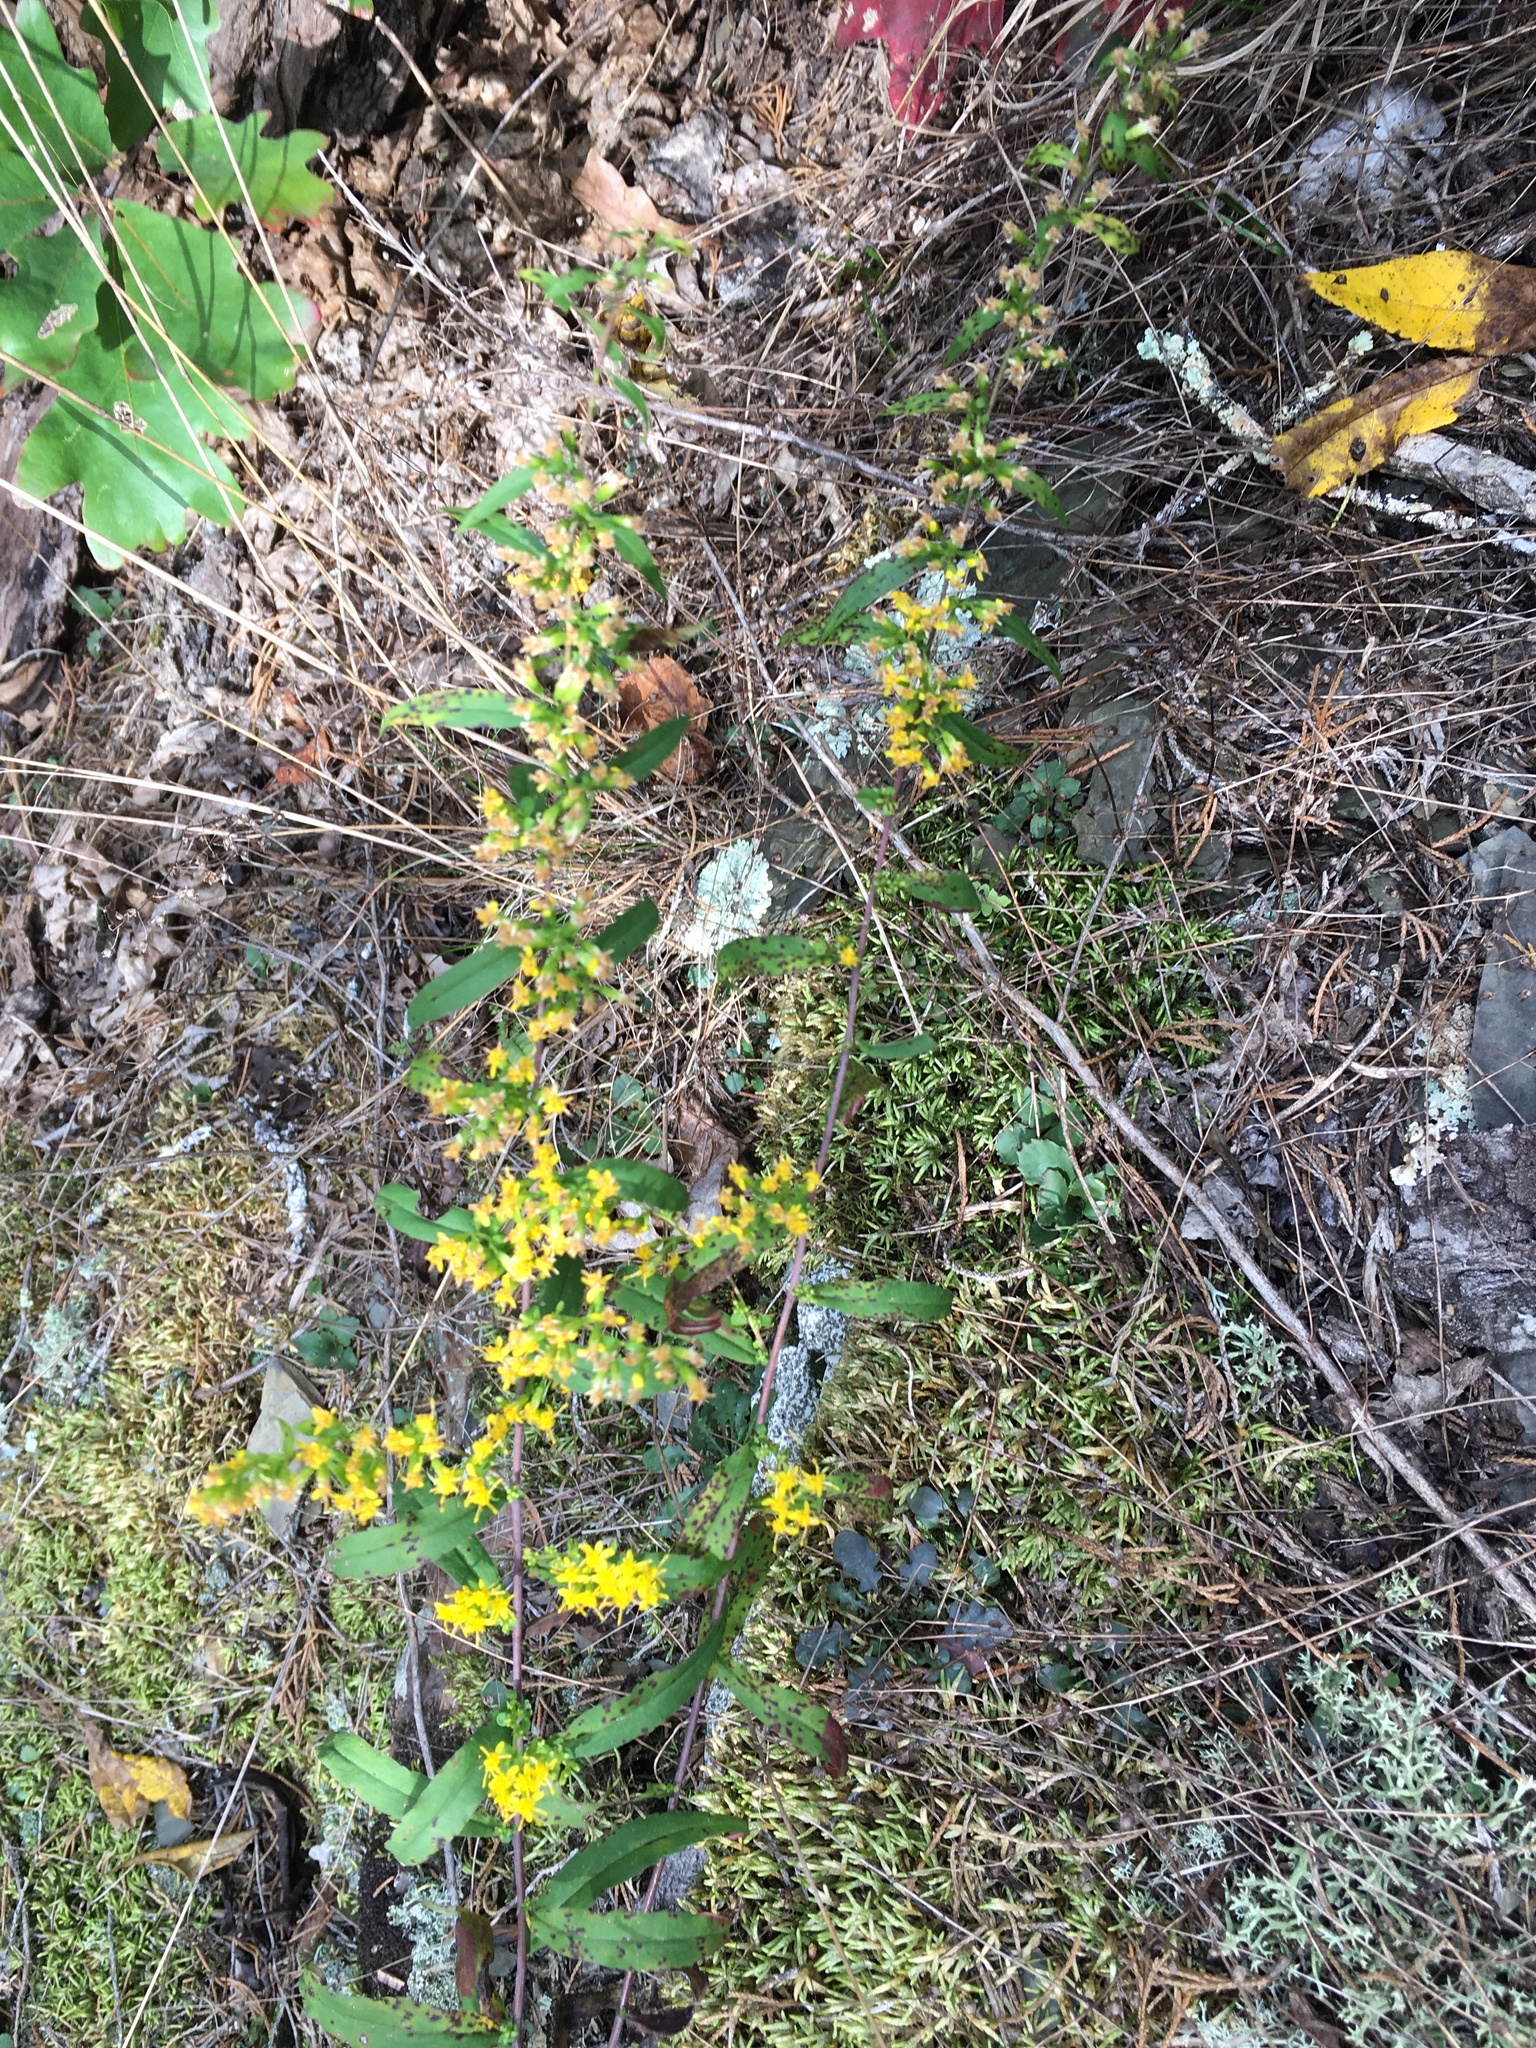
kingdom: Plantae
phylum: Tracheophyta
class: Magnoliopsida
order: Asterales
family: Asteraceae
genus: Solidago
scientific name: Solidago caesia
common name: Woodland goldenrod
